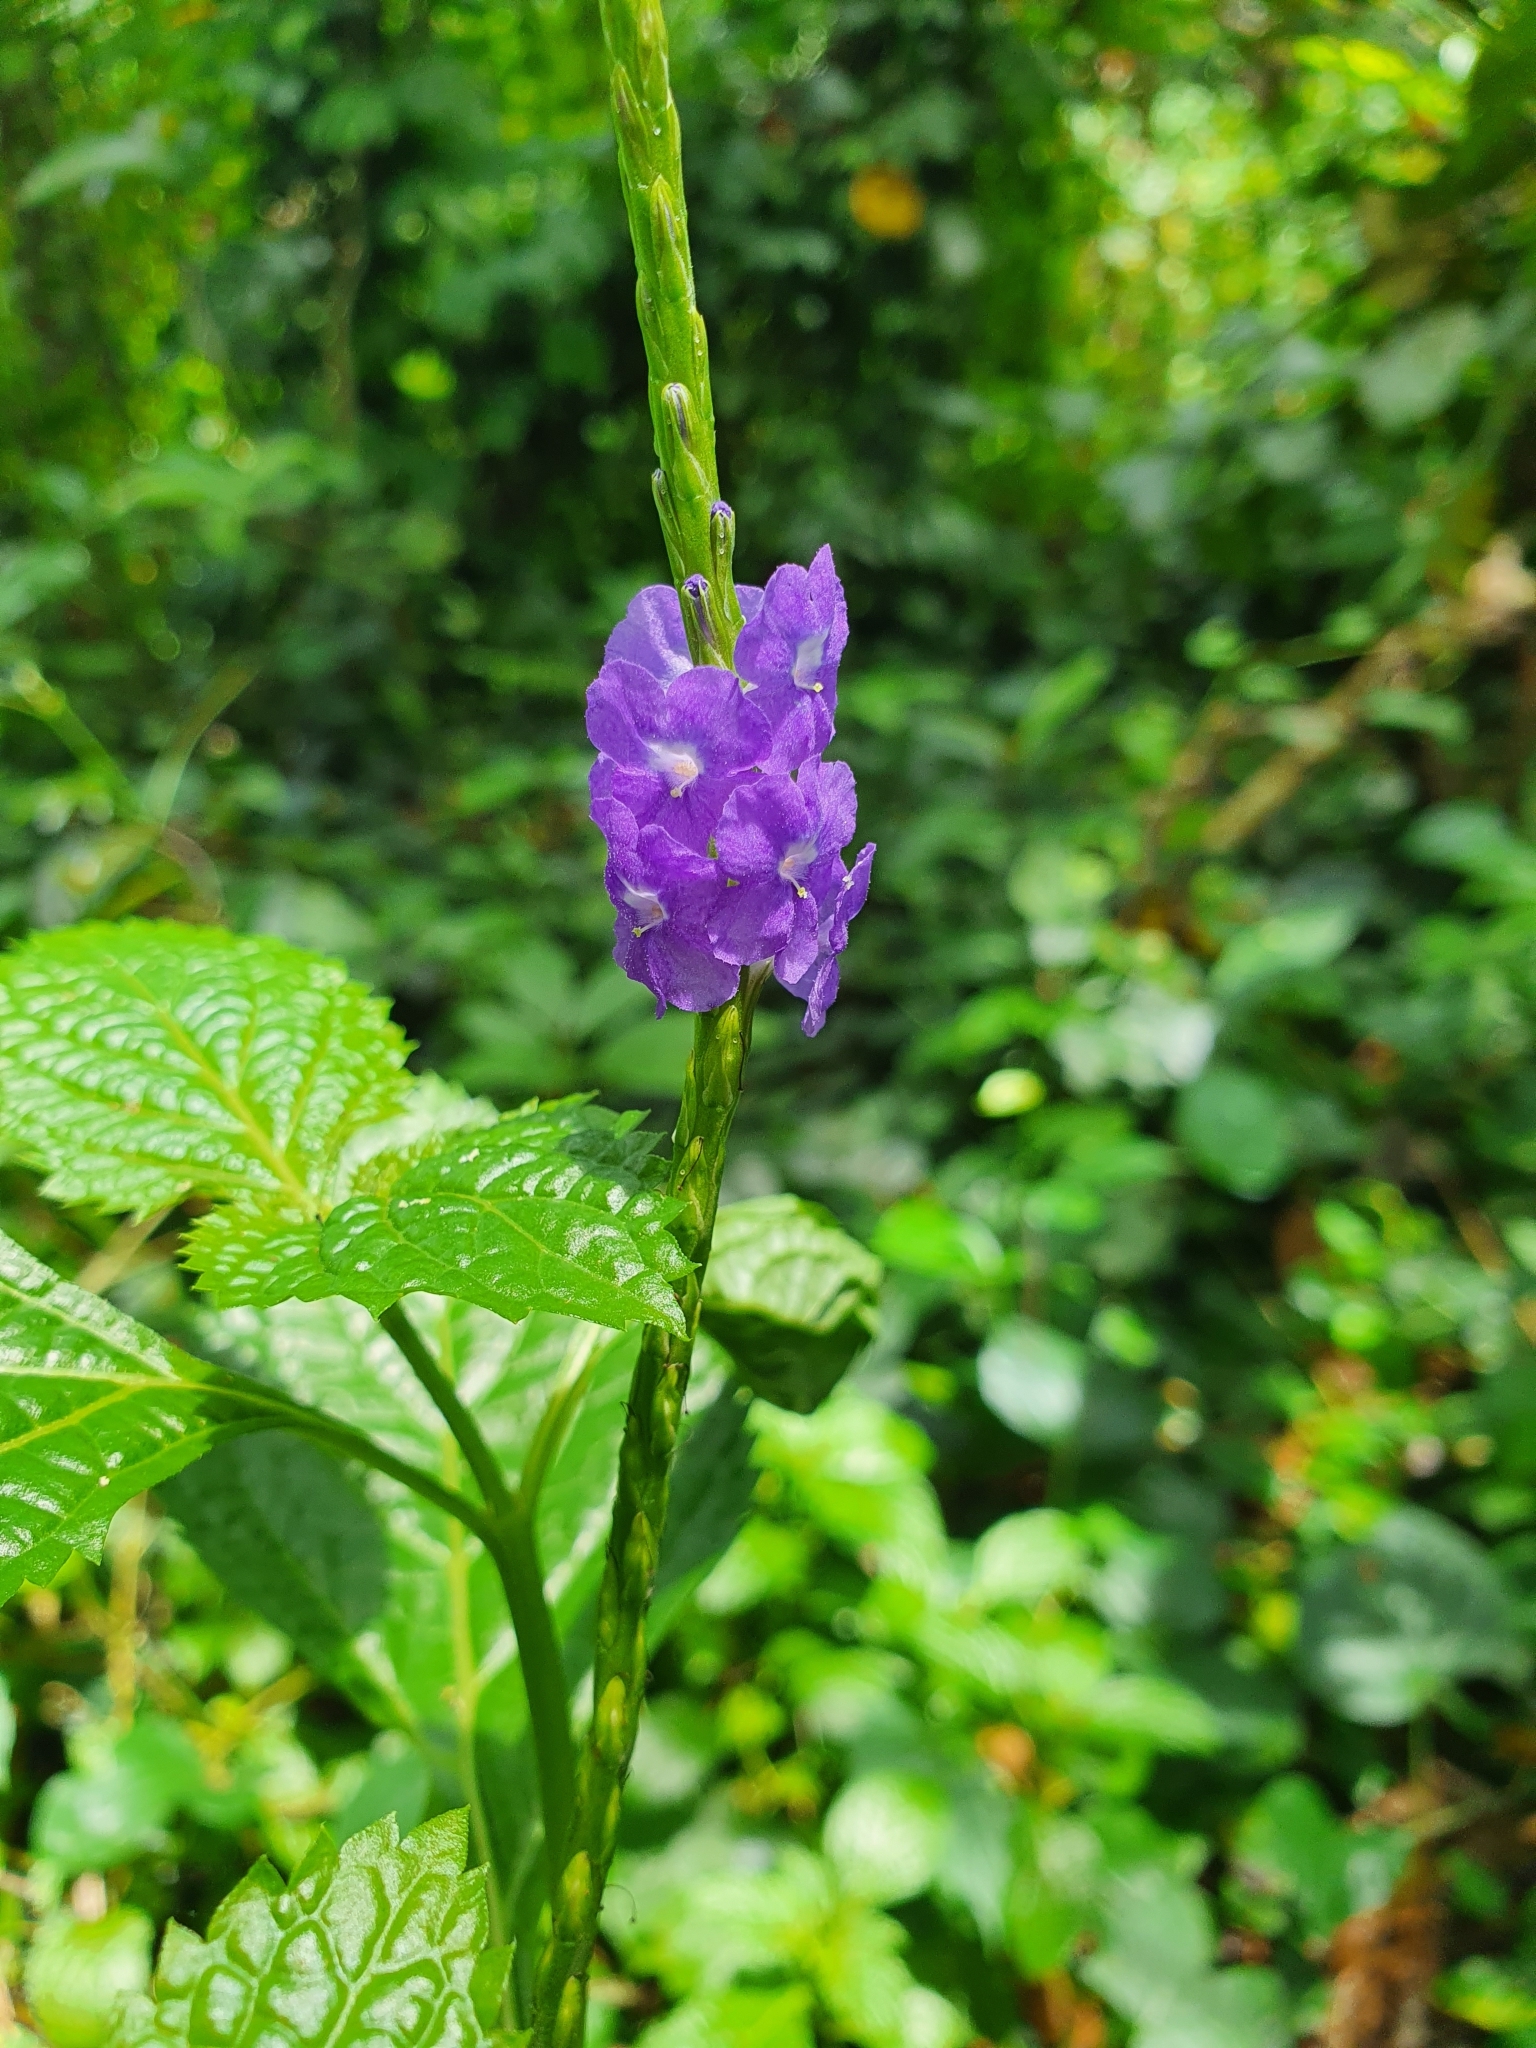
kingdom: Plantae
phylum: Tracheophyta
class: Magnoliopsida
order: Lamiales
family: Verbenaceae
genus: Stachytarpheta
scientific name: Stachytarpheta jamaicensis
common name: Light-blue snakeweed
